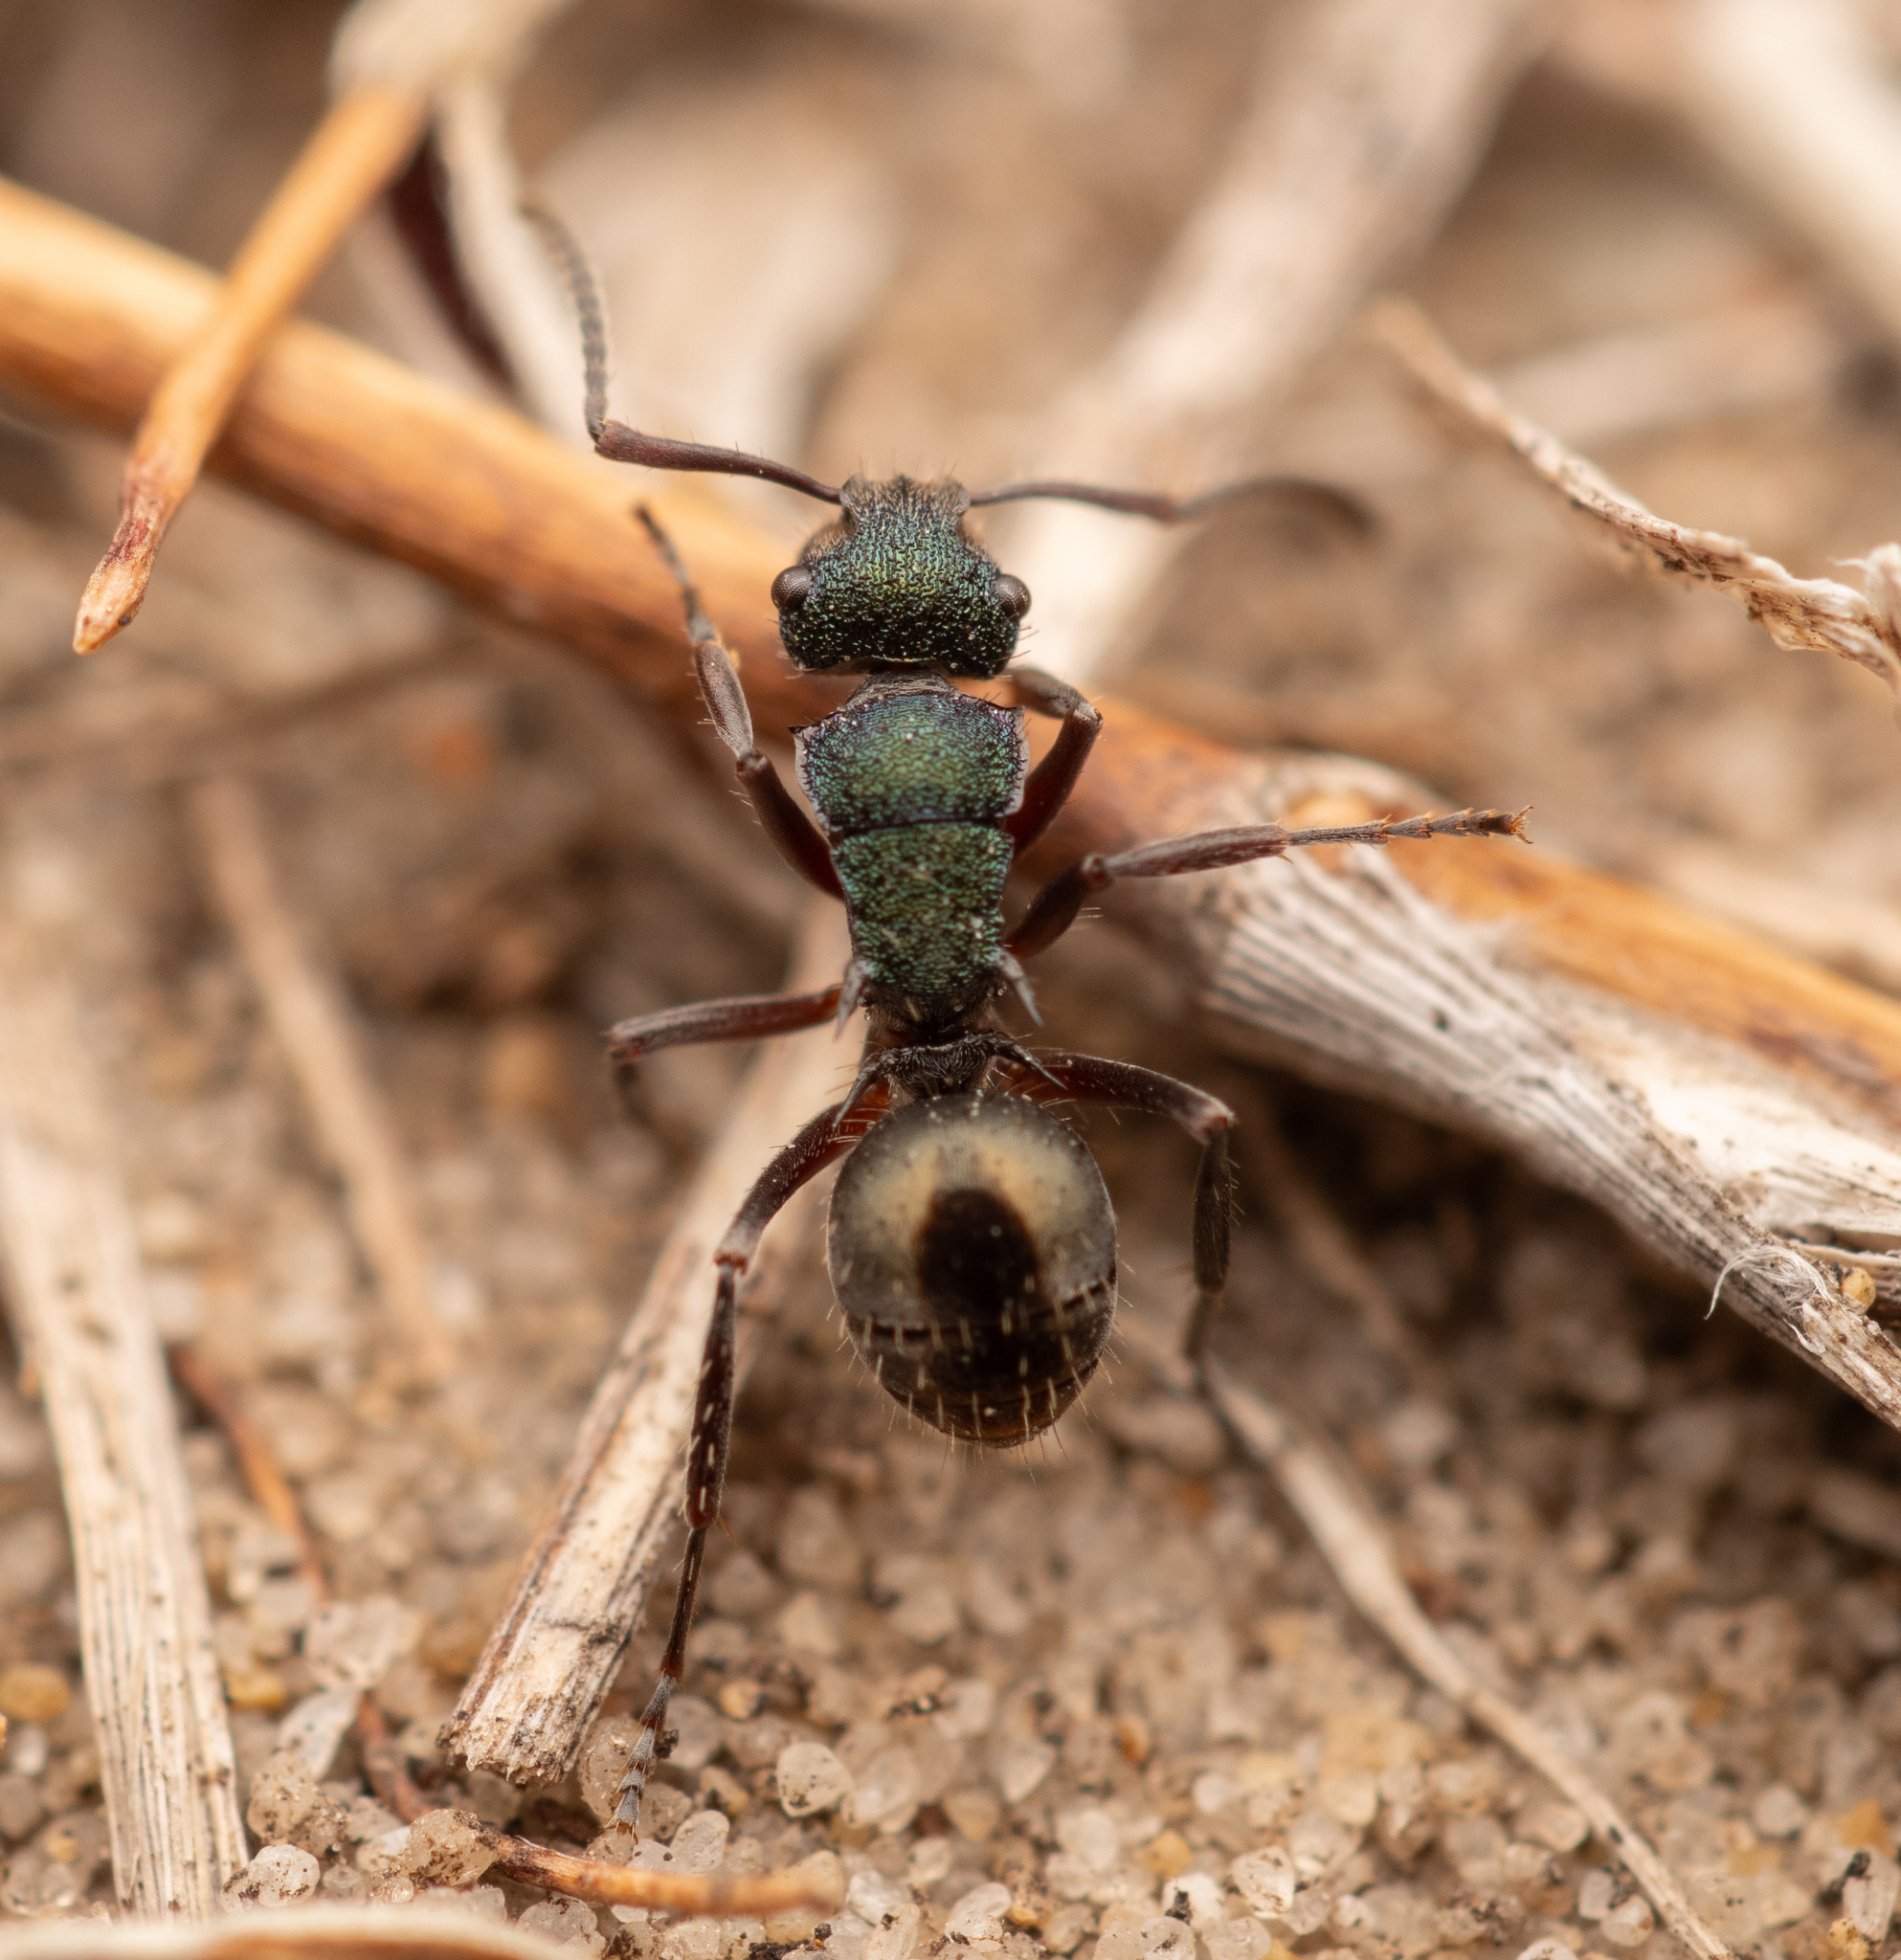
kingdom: Animalia
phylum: Arthropoda
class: Insecta
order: Hymenoptera
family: Formicidae
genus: Polyrhachis
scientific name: Polyrhachis hookeri
